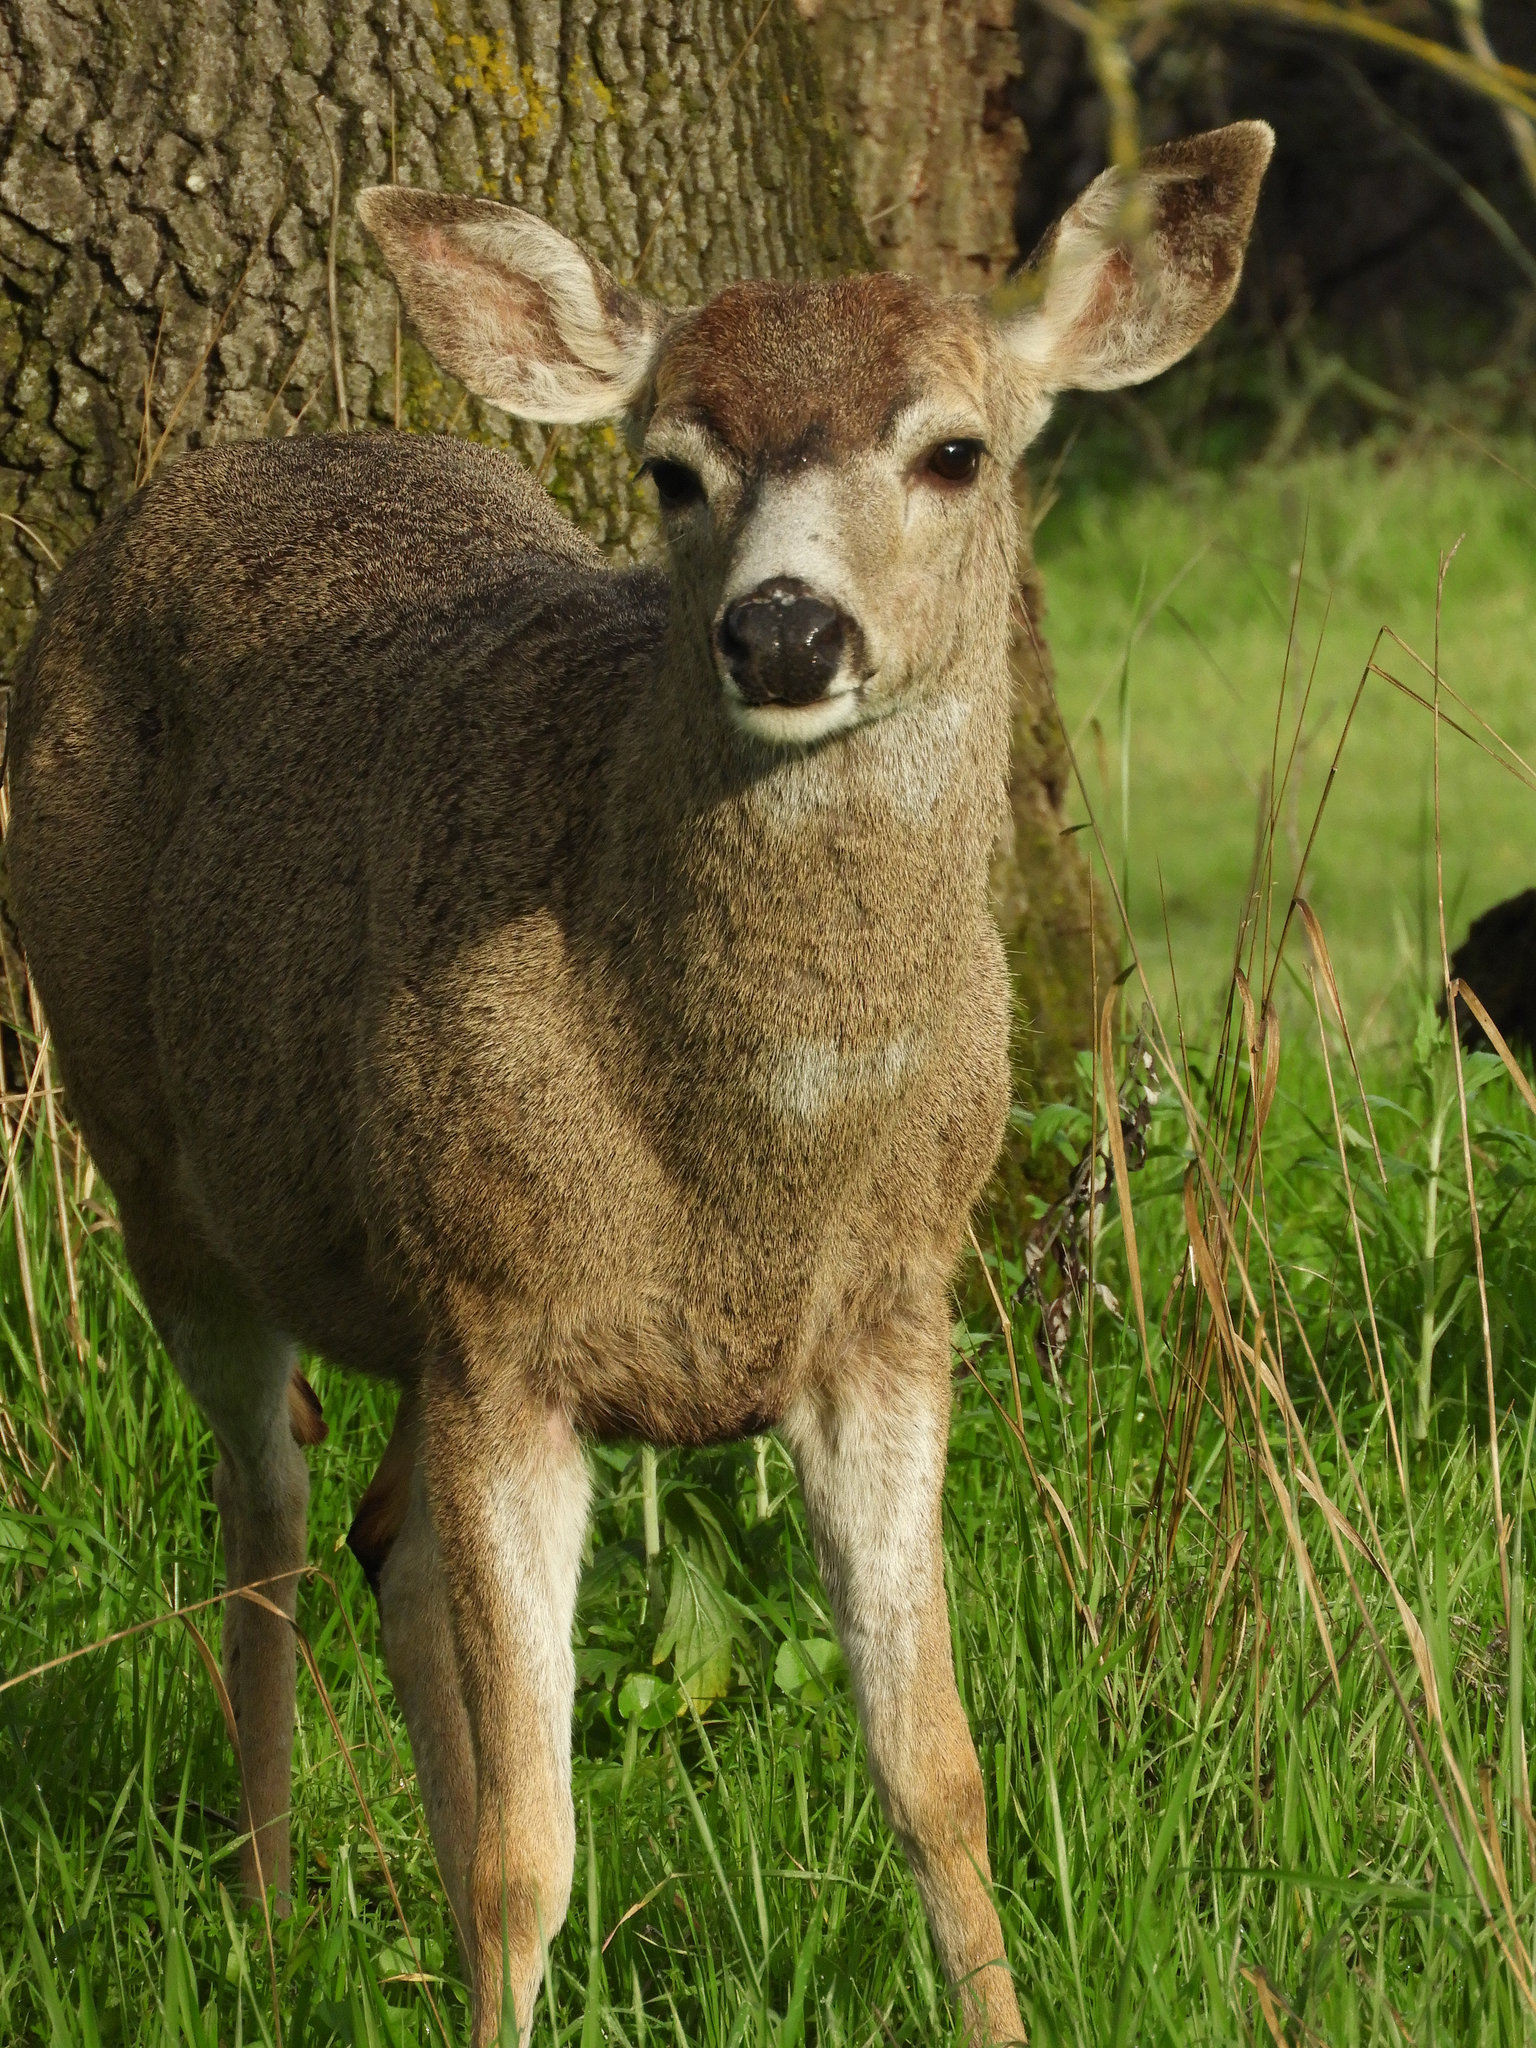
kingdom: Animalia
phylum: Chordata
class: Mammalia
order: Artiodactyla
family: Cervidae
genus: Odocoileus
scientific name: Odocoileus hemionus
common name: Mule deer
